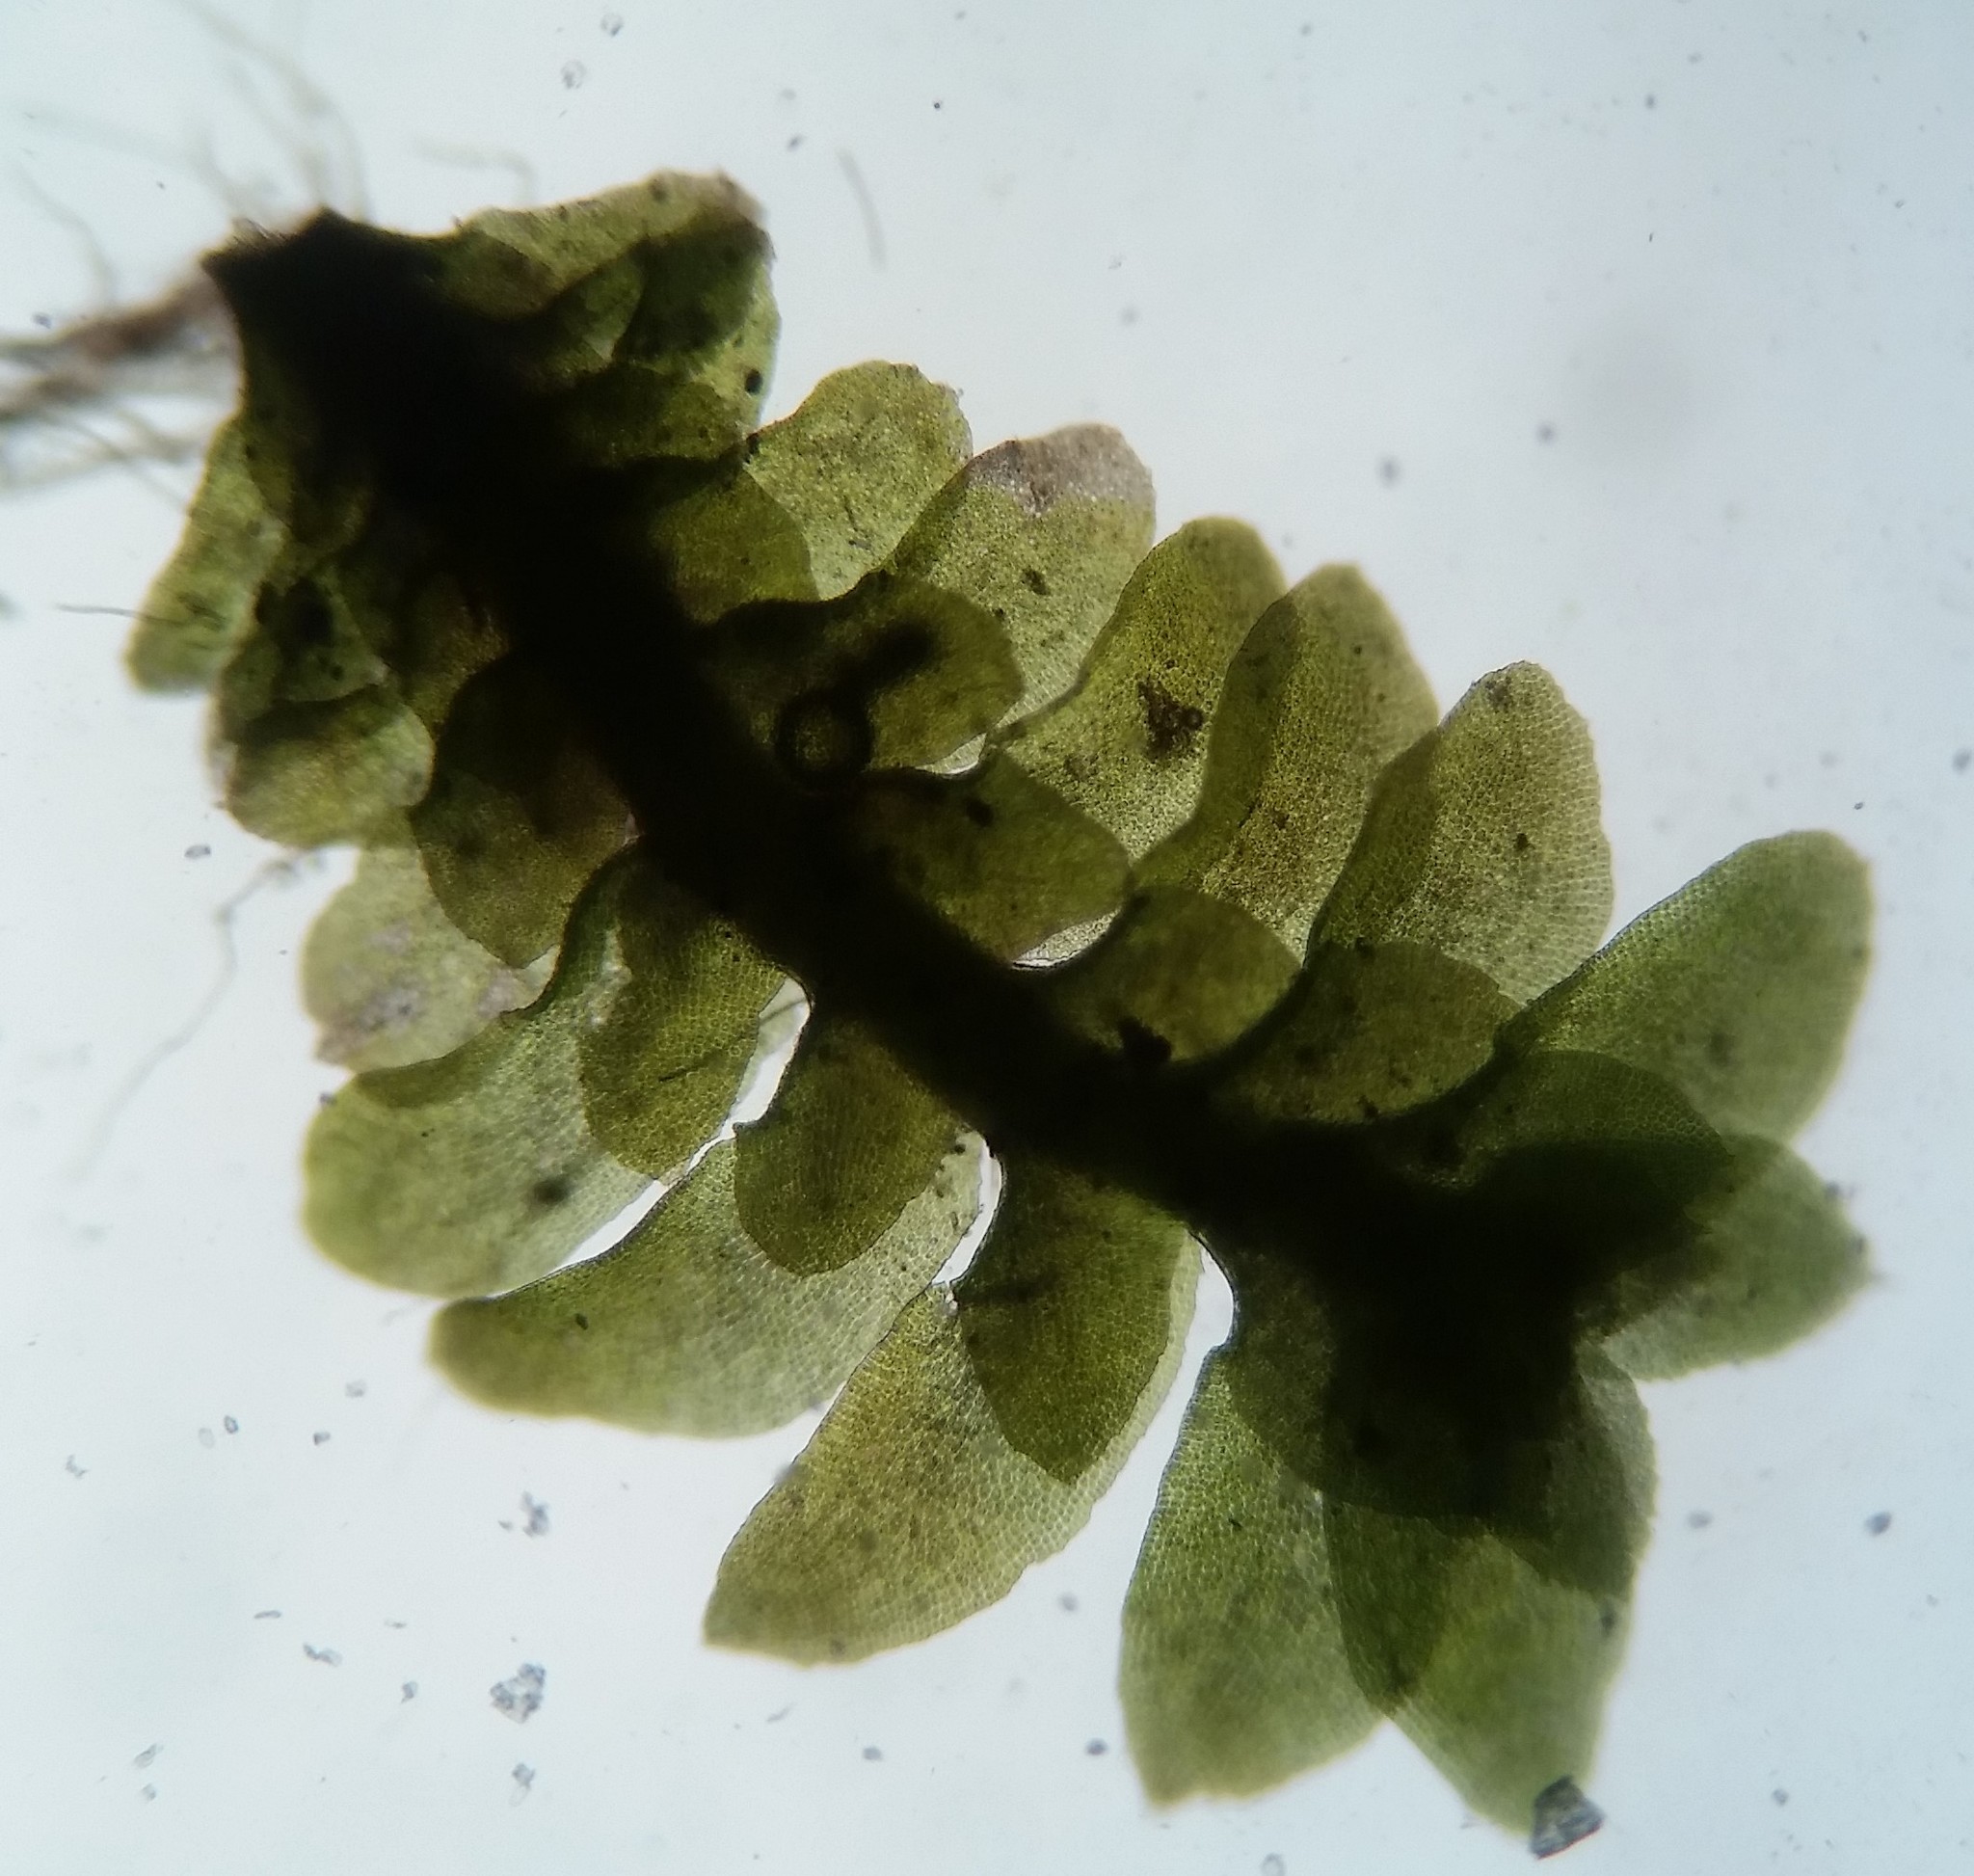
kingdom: Plantae
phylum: Marchantiophyta
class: Jungermanniopsida
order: Jungermanniales
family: Scapaniaceae
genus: Diplophyllum
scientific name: Diplophyllum apiculatum
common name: Sharp-pointed earwort
